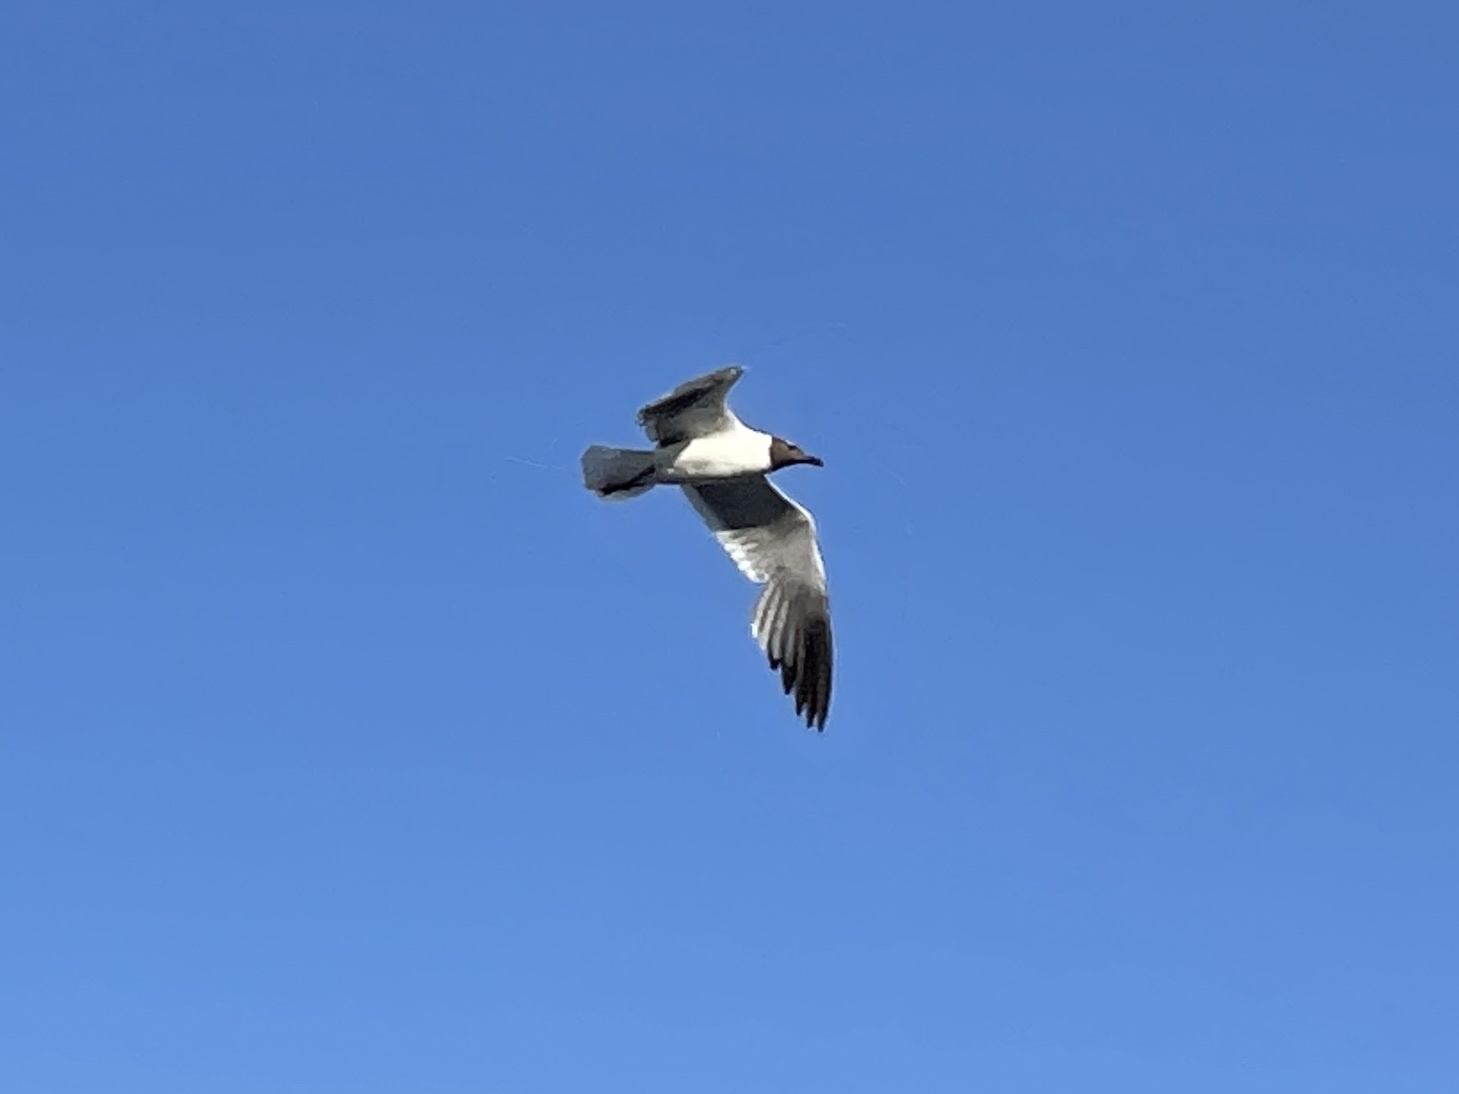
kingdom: Animalia
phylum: Chordata
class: Aves
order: Charadriiformes
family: Laridae
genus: Leucophaeus
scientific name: Leucophaeus atricilla
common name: Laughing gull
